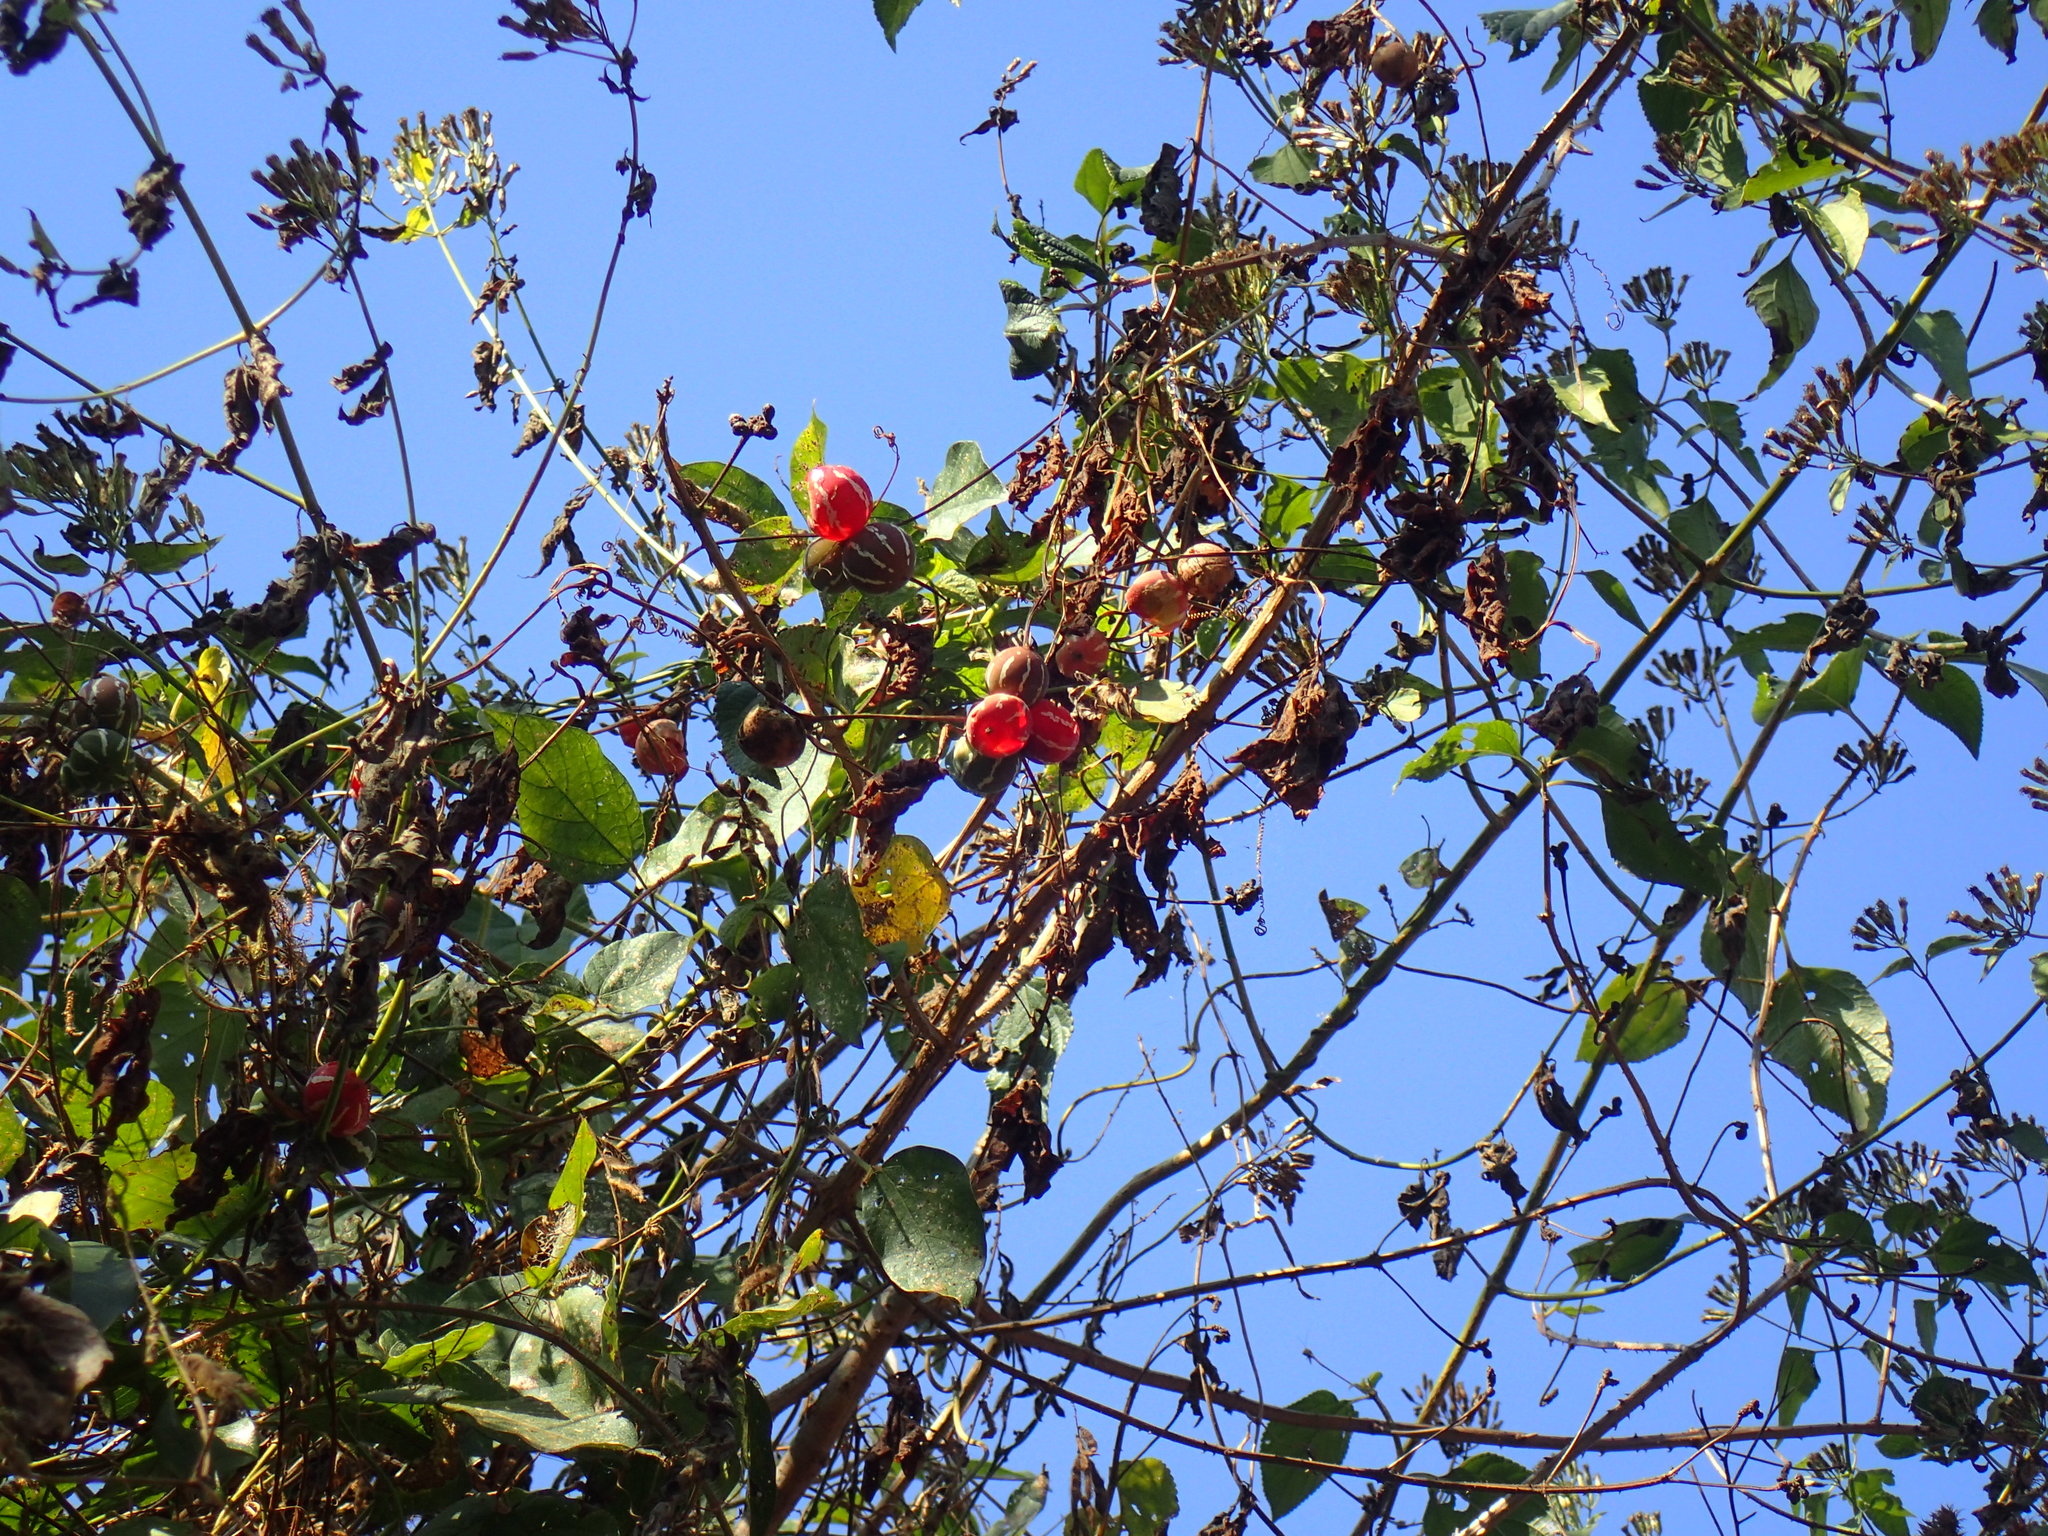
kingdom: Plantae
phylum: Tracheophyta
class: Magnoliopsida
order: Cucurbitales
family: Cucurbitaceae
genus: Diplocyclos
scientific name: Diplocyclos palmatus
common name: Striped-cucumber
